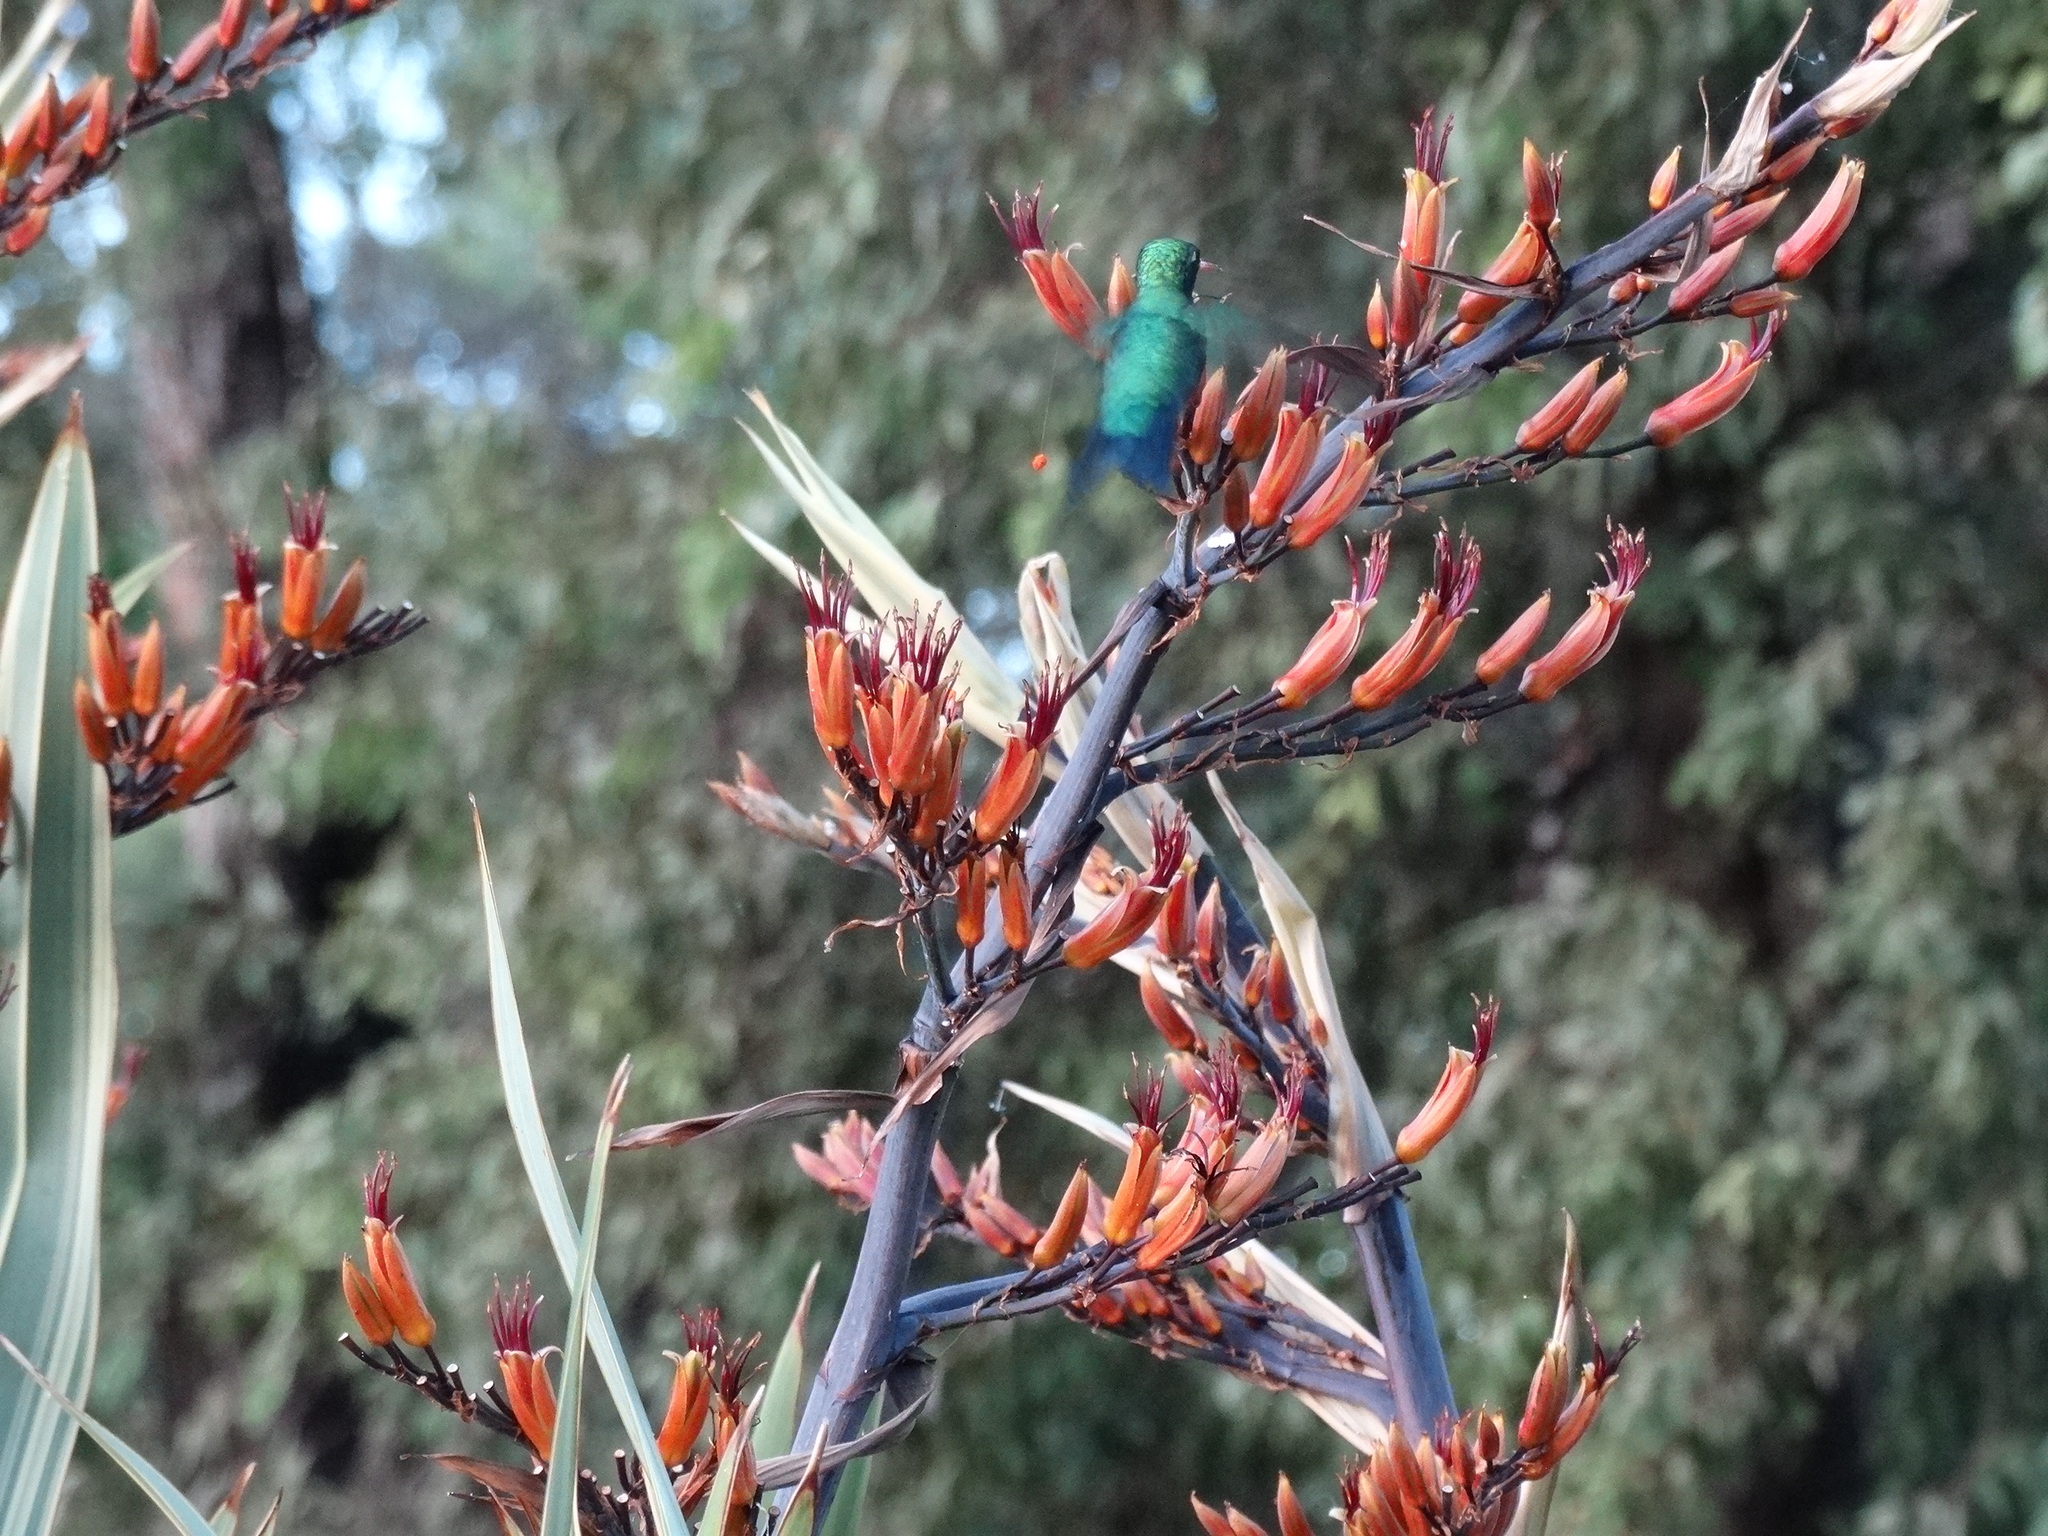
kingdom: Animalia
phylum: Chordata
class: Aves
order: Apodiformes
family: Trochilidae
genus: Chlorostilbon
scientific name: Chlorostilbon lucidus
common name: Glittering-bellied emerald
